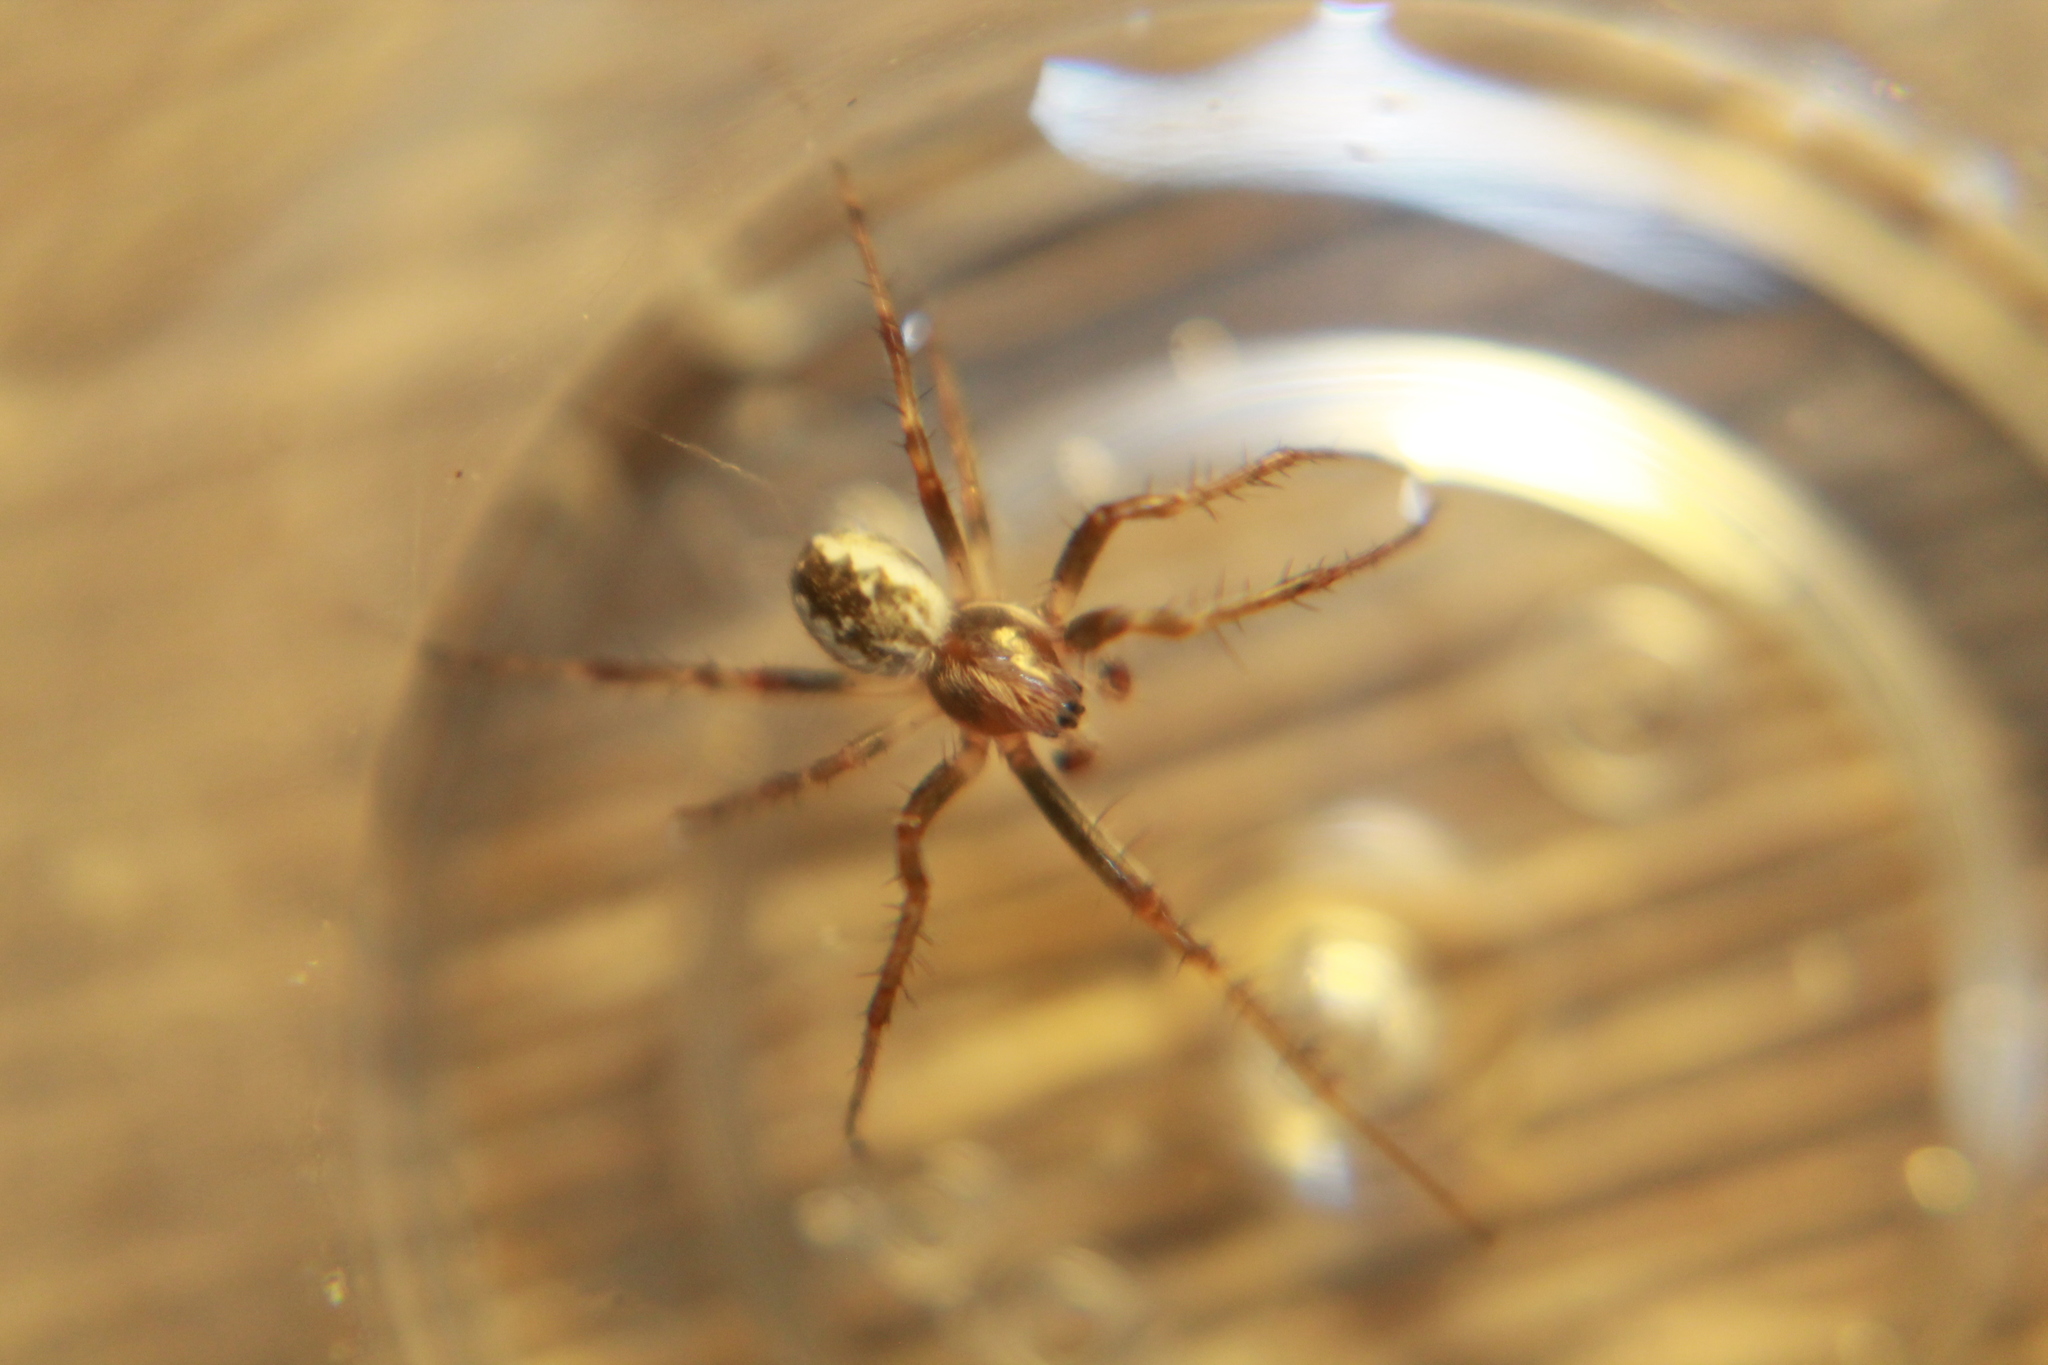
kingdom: Animalia
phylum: Arthropoda
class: Arachnida
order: Araneae
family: Araneidae
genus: Salsa
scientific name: Salsa fuliginata
